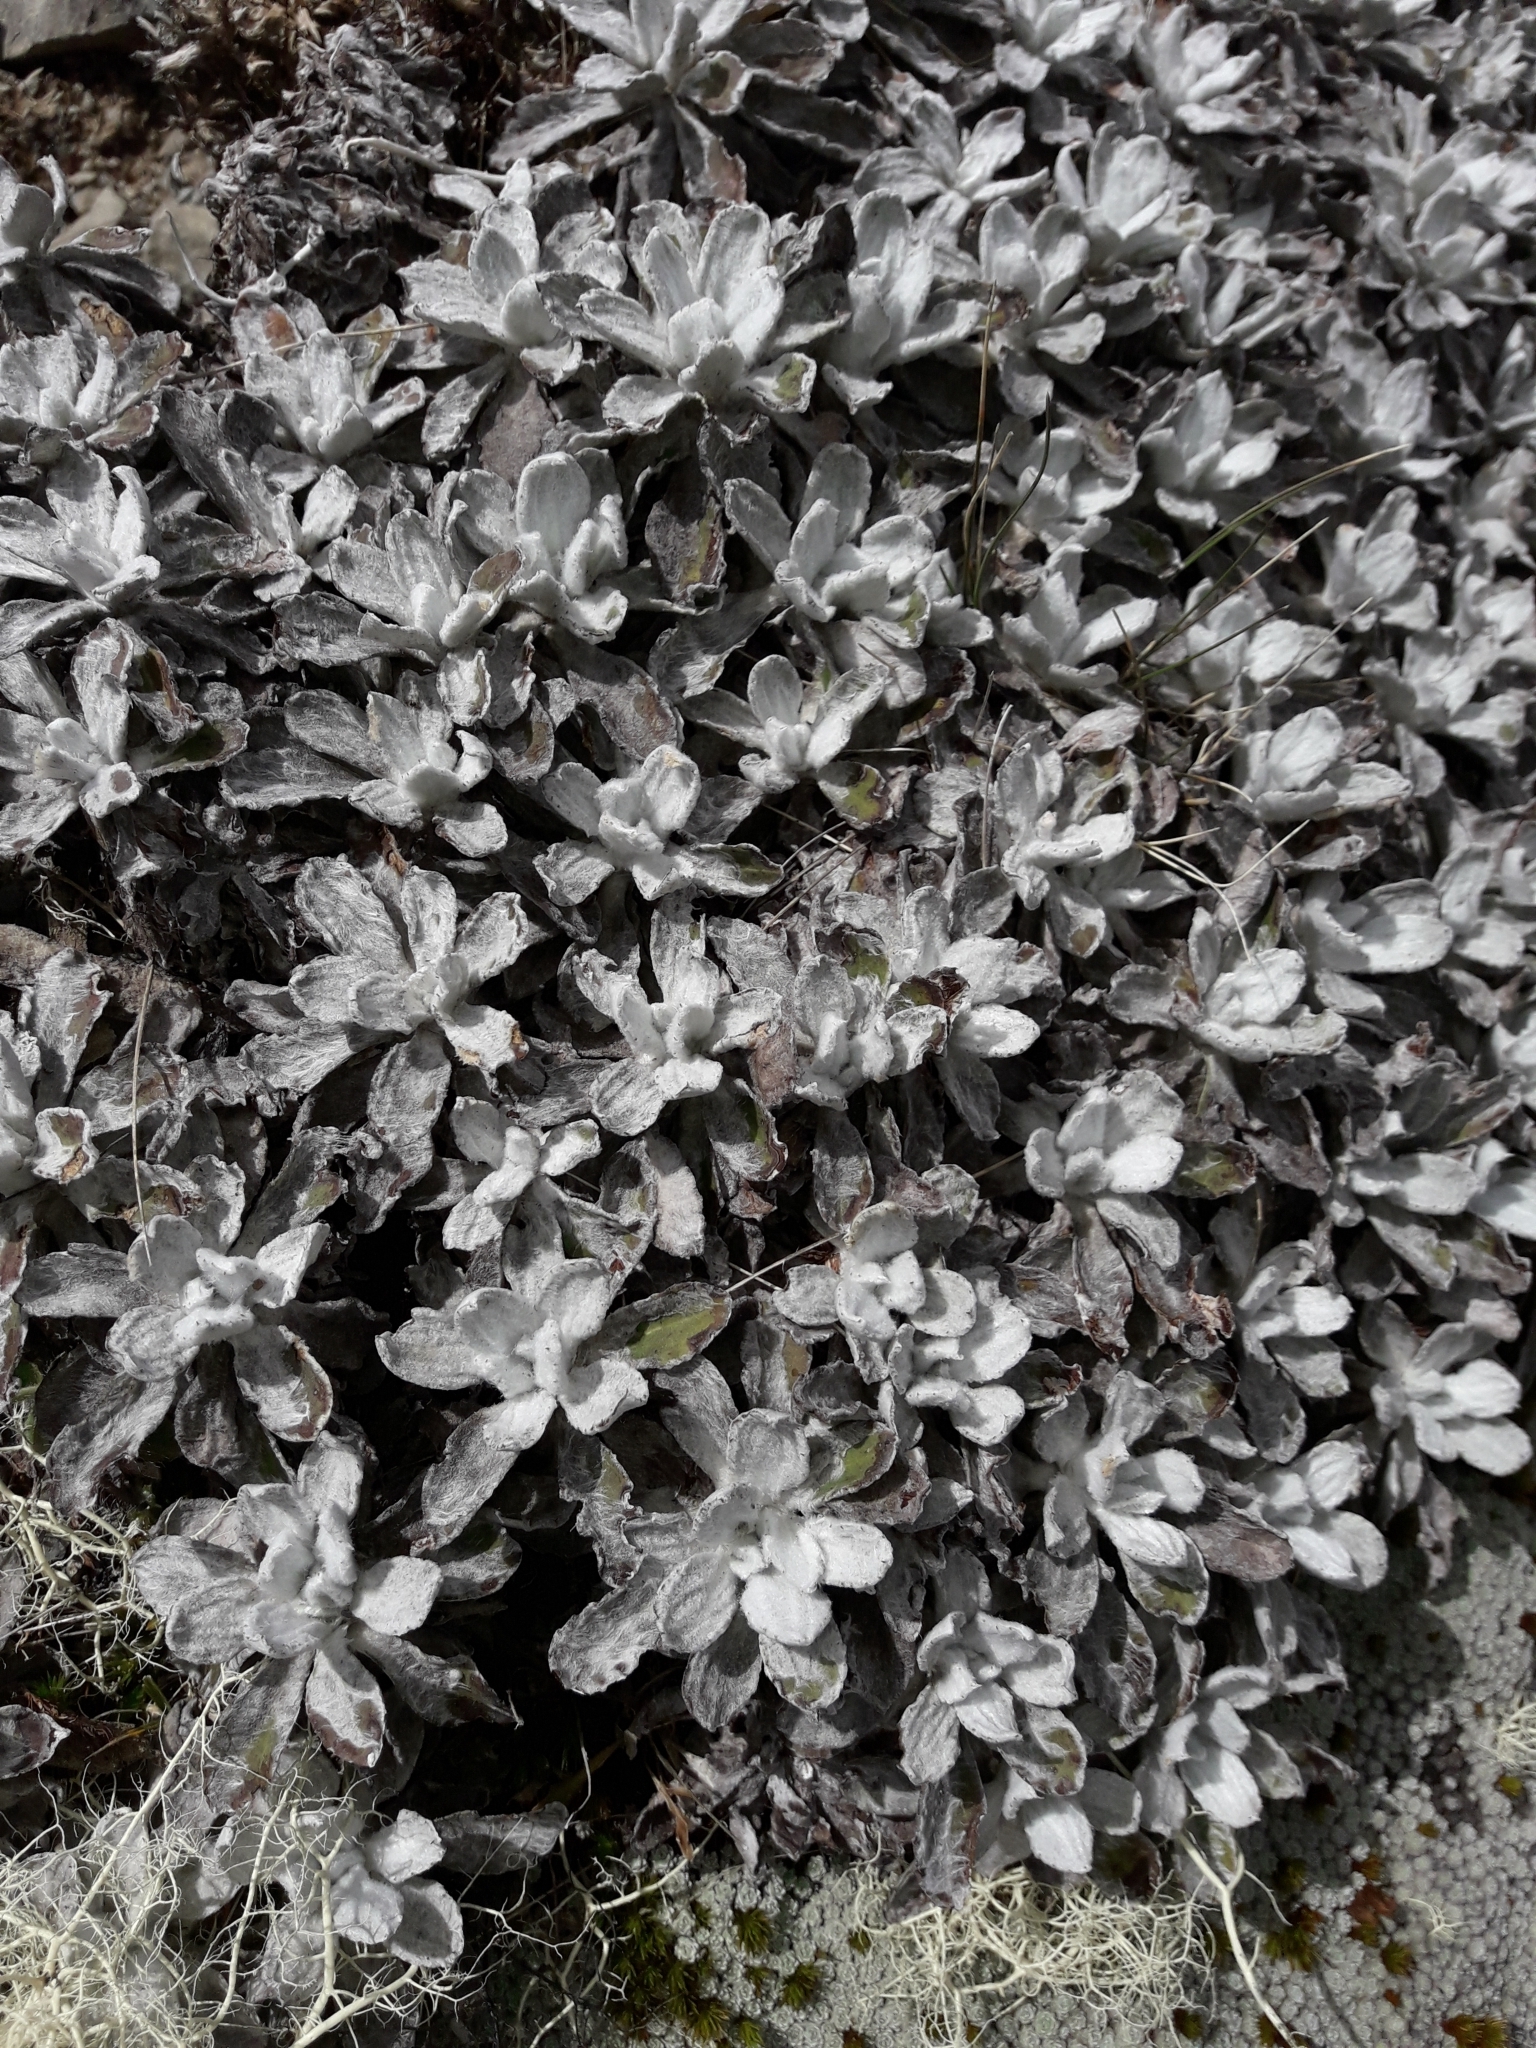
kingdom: Plantae
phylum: Tracheophyta
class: Magnoliopsida
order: Asterales
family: Asteraceae
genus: Celmisia
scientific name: Celmisia allanii
